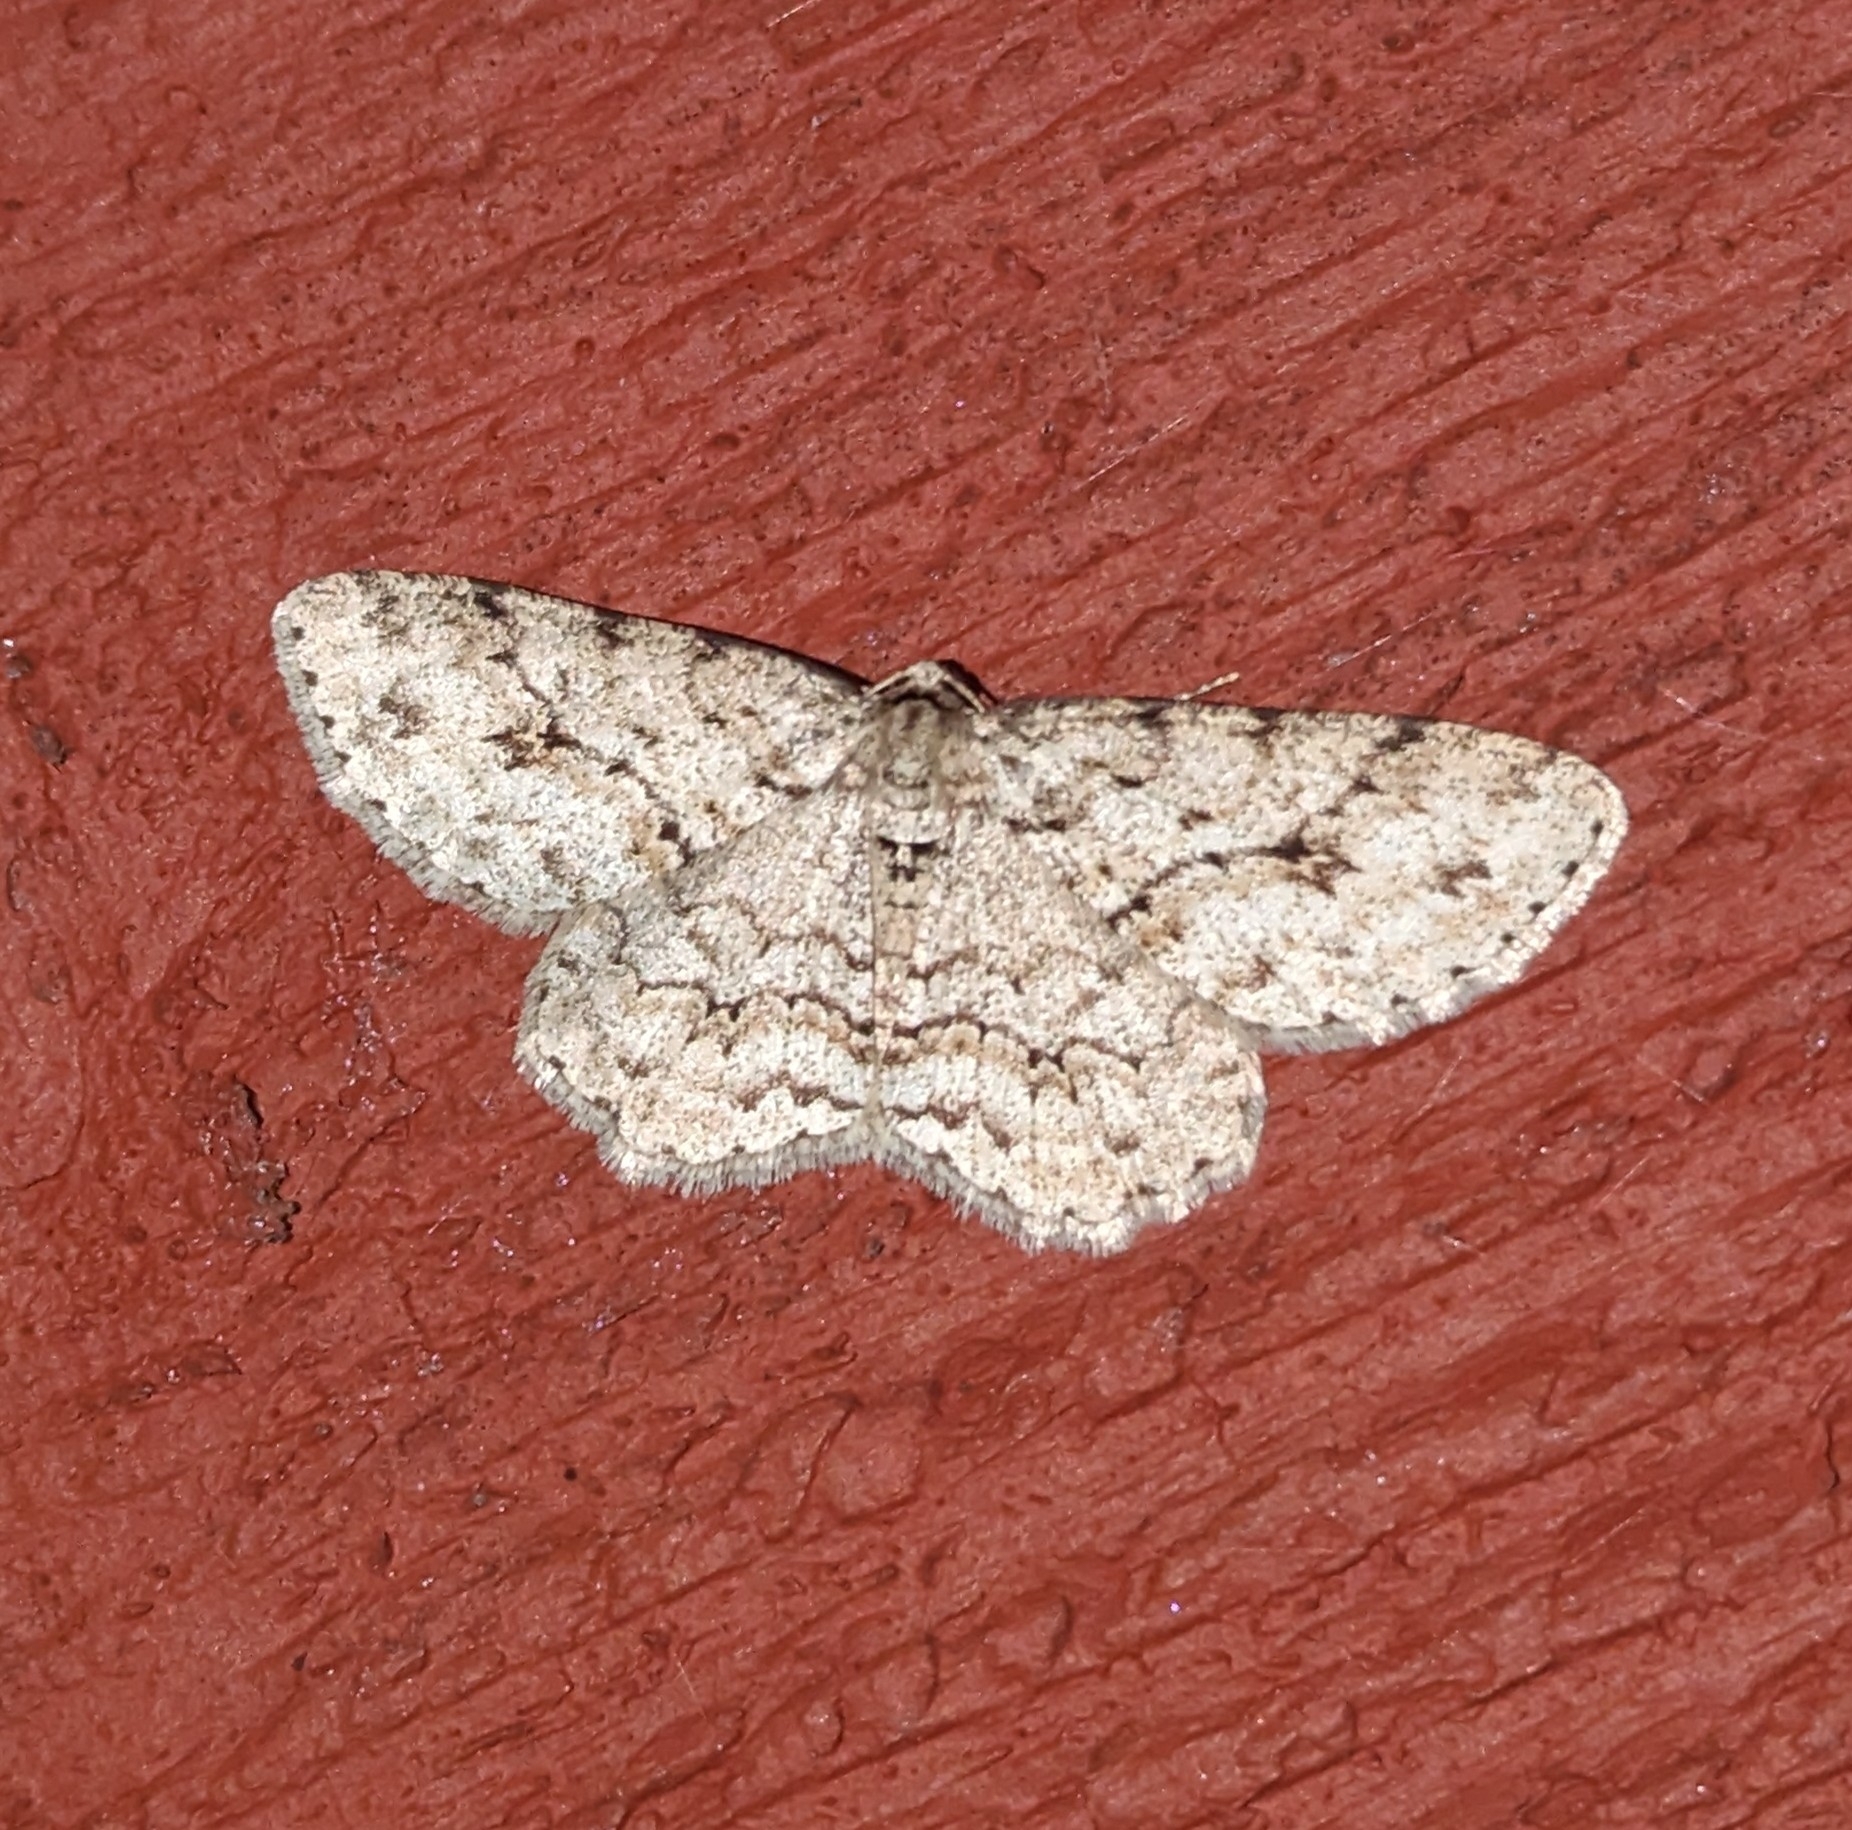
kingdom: Animalia
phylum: Arthropoda
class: Insecta
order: Lepidoptera
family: Geometridae
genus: Ectropis
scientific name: Ectropis crepuscularia
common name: Engrailed
